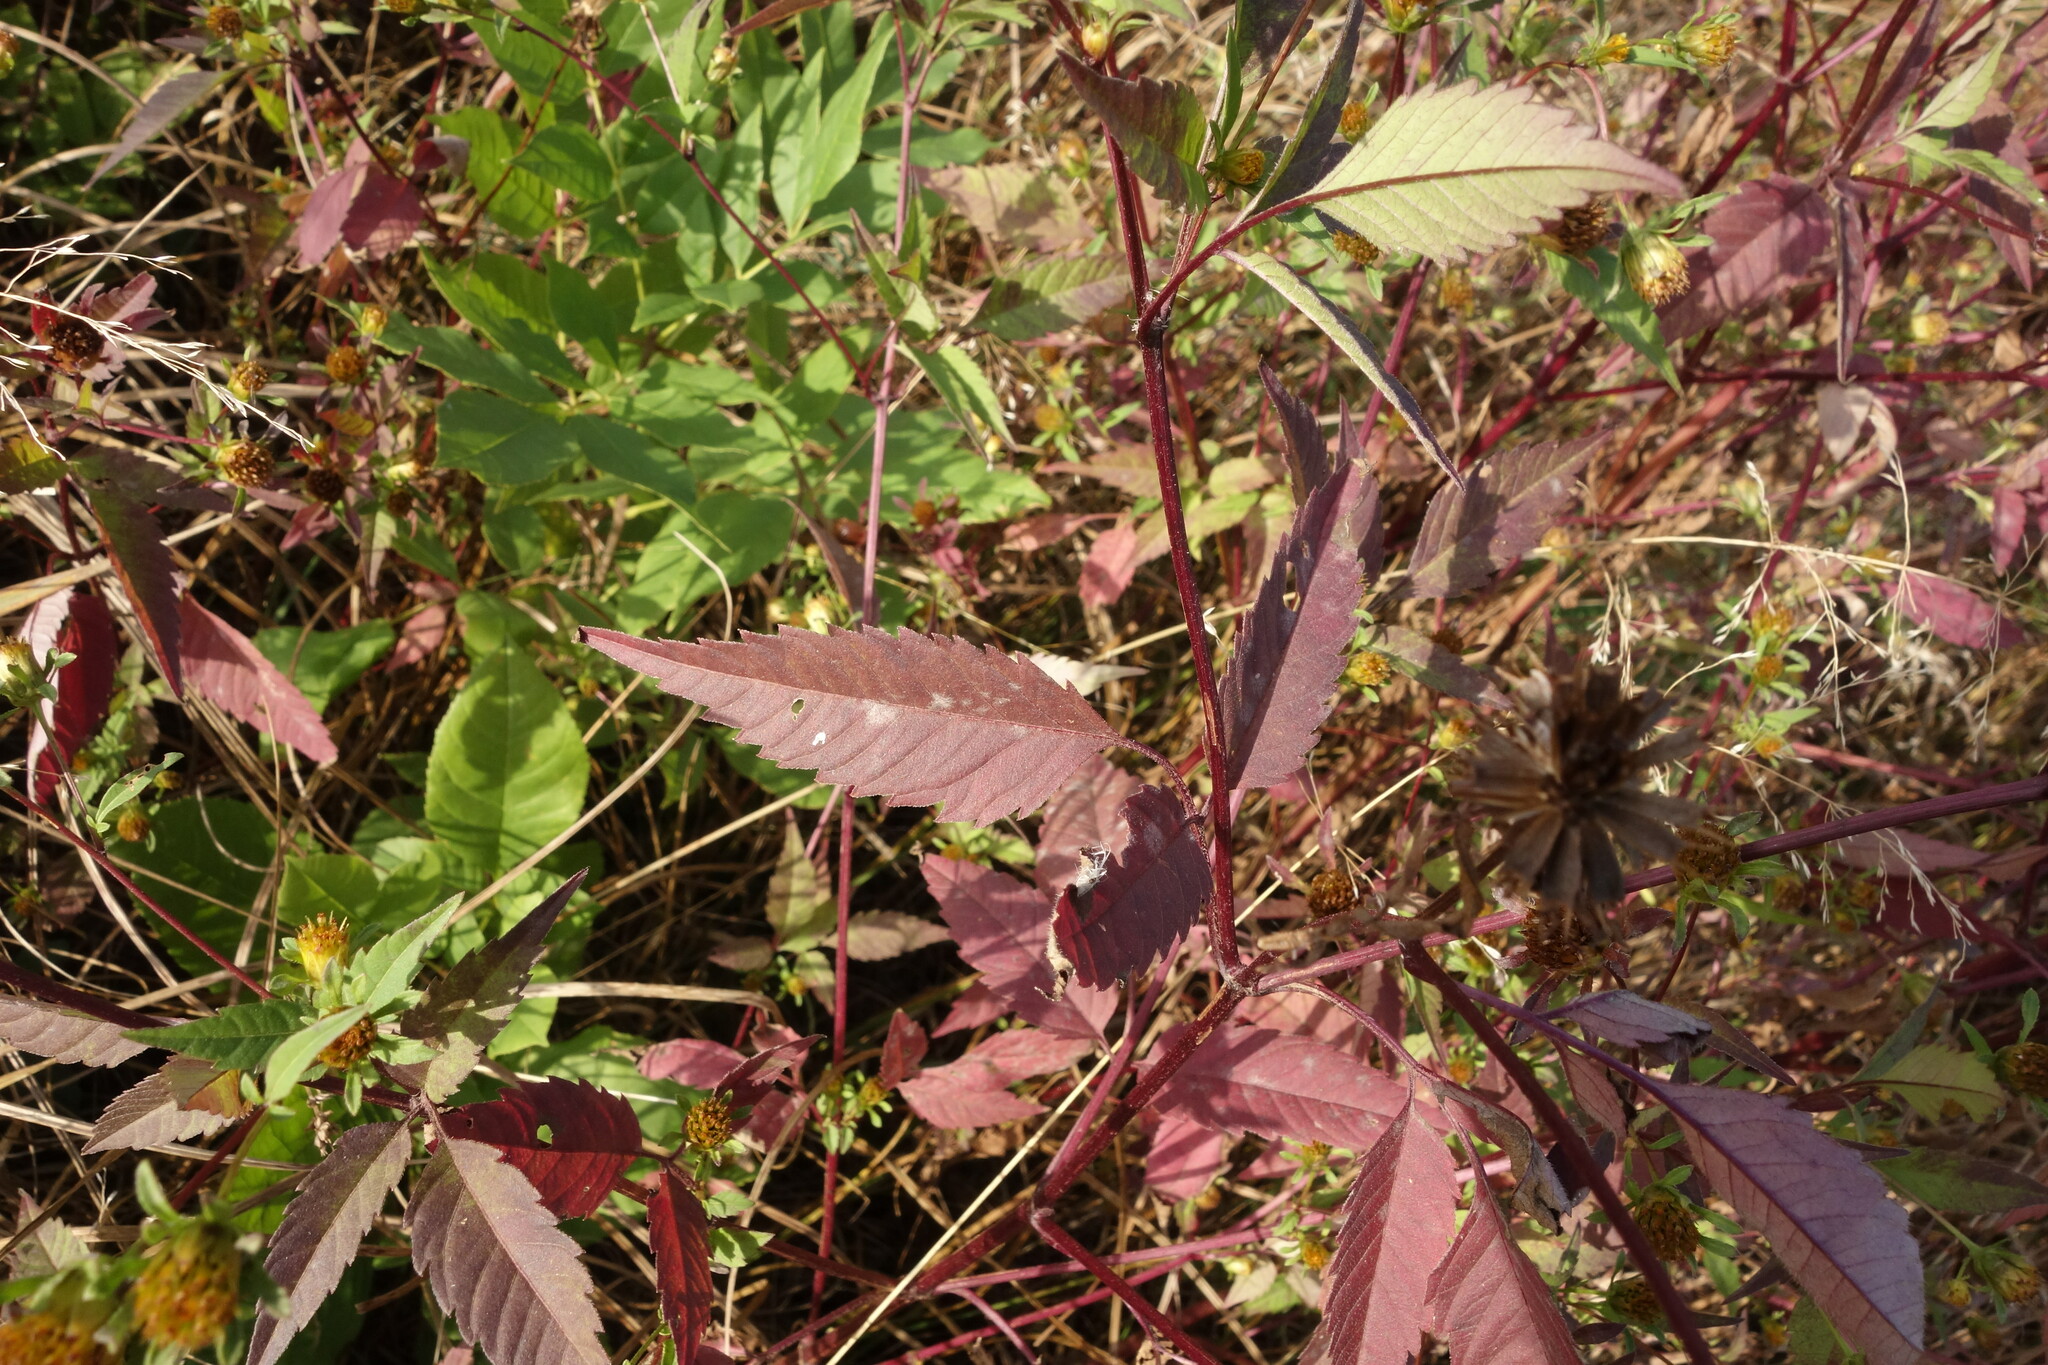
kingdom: Plantae
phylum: Tracheophyta
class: Magnoliopsida
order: Asterales
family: Asteraceae
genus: Bidens
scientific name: Bidens frondosa
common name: Beggarticks
